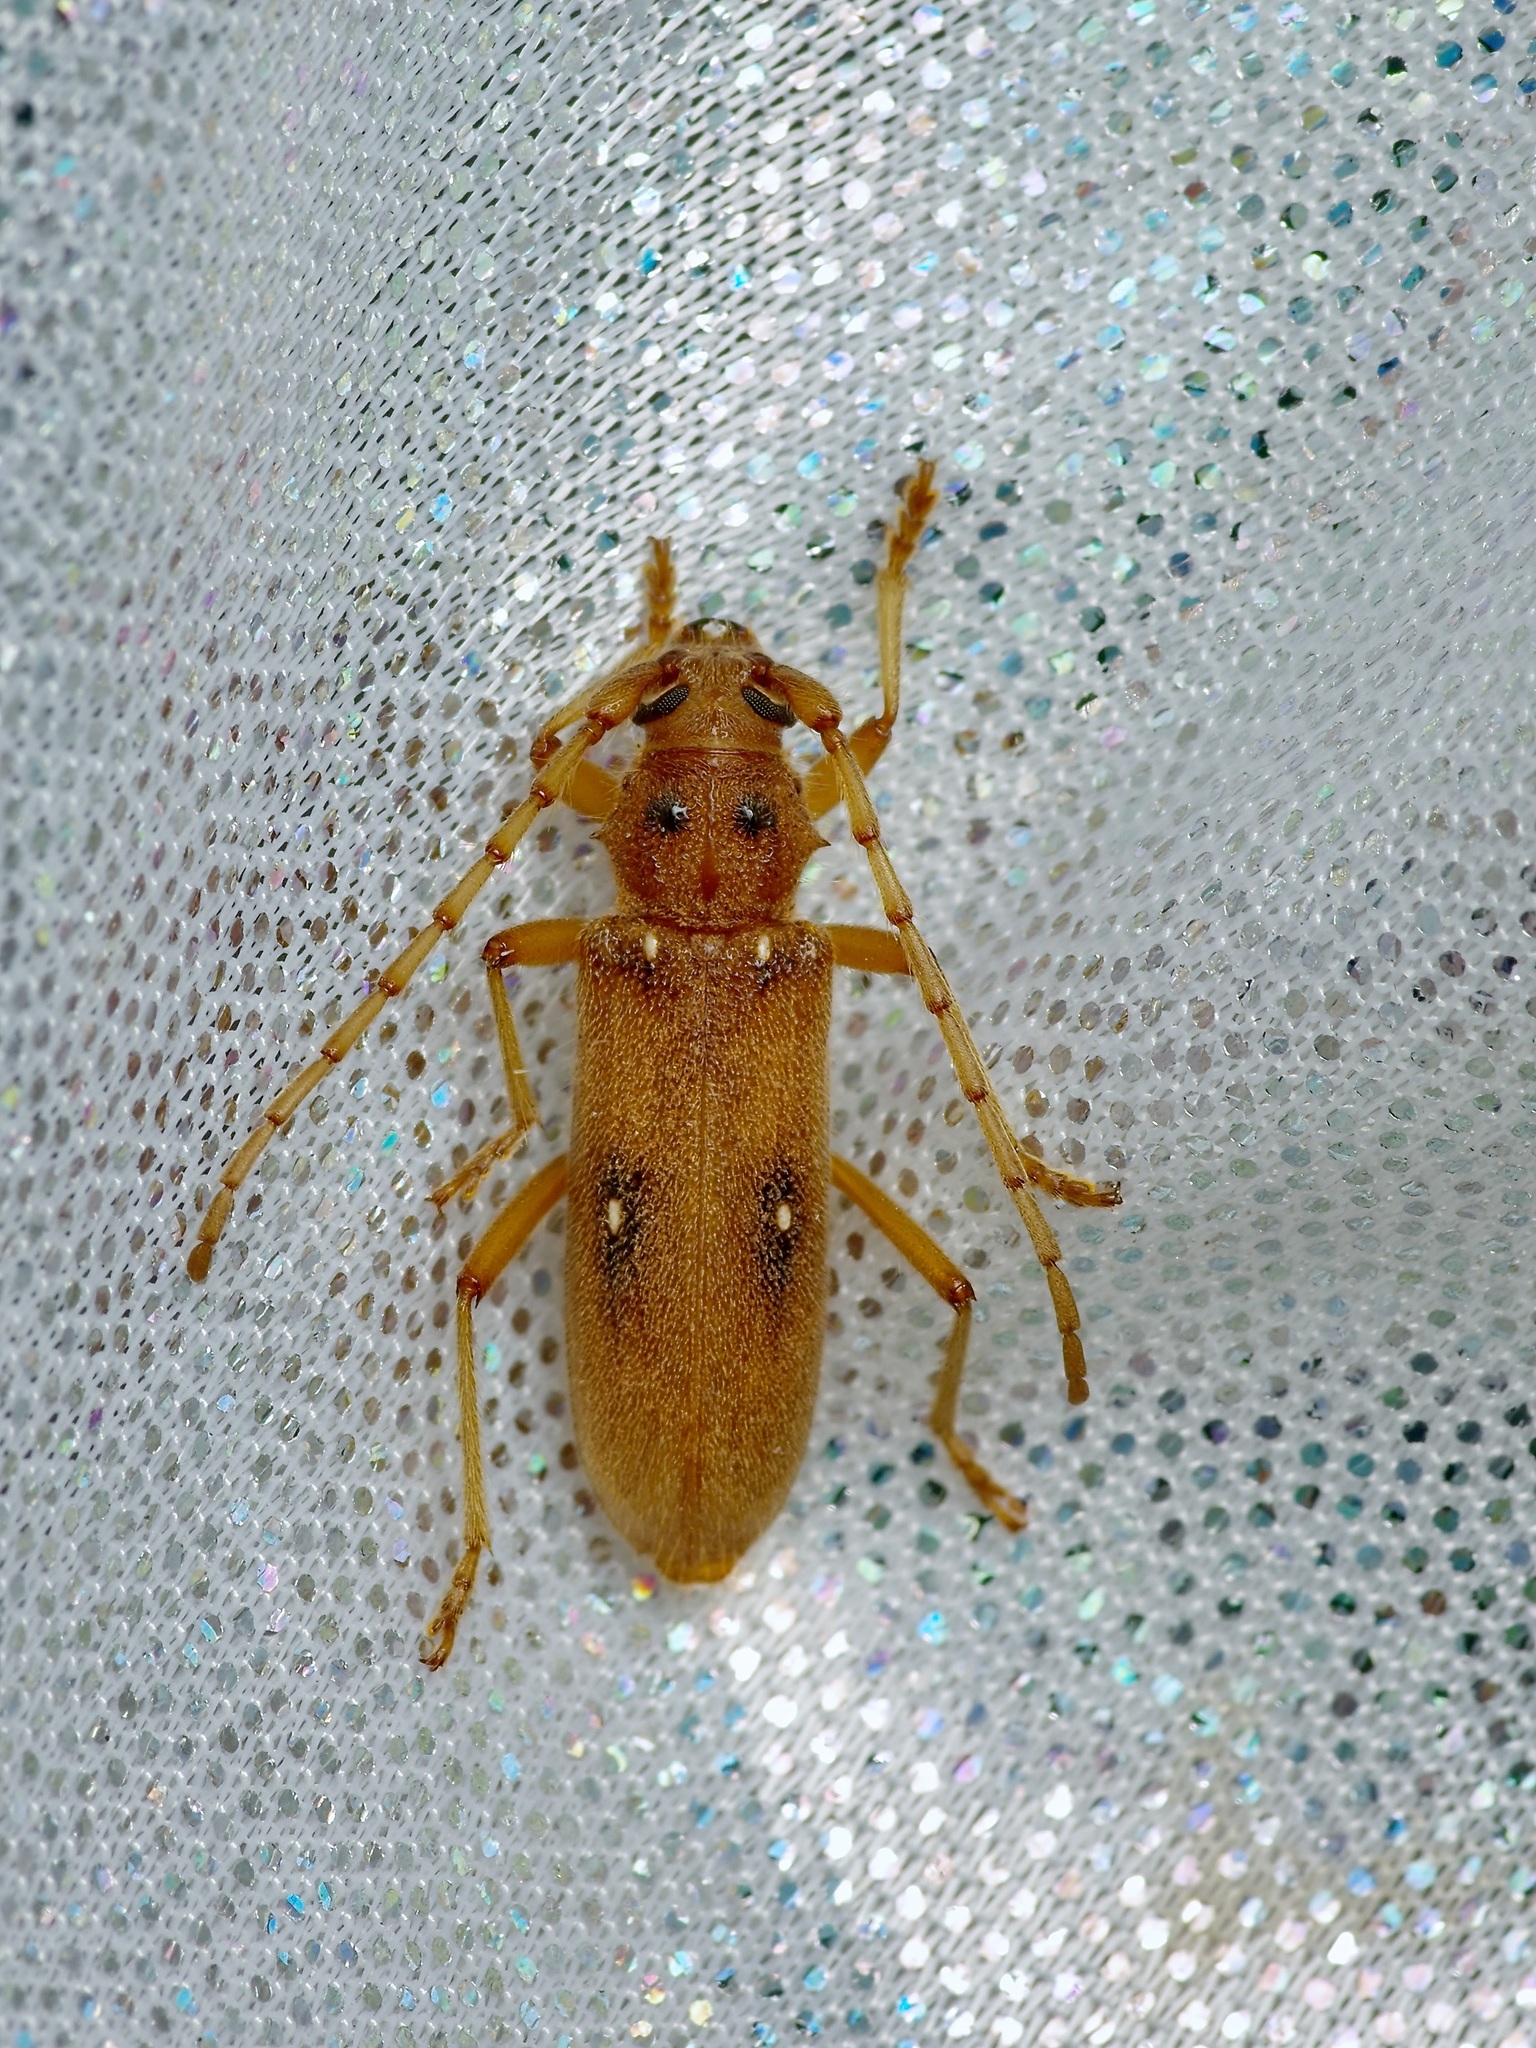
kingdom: Animalia
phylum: Arthropoda
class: Insecta
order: Coleoptera
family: Cerambycidae
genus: Eburia
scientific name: Eburia haldemani
